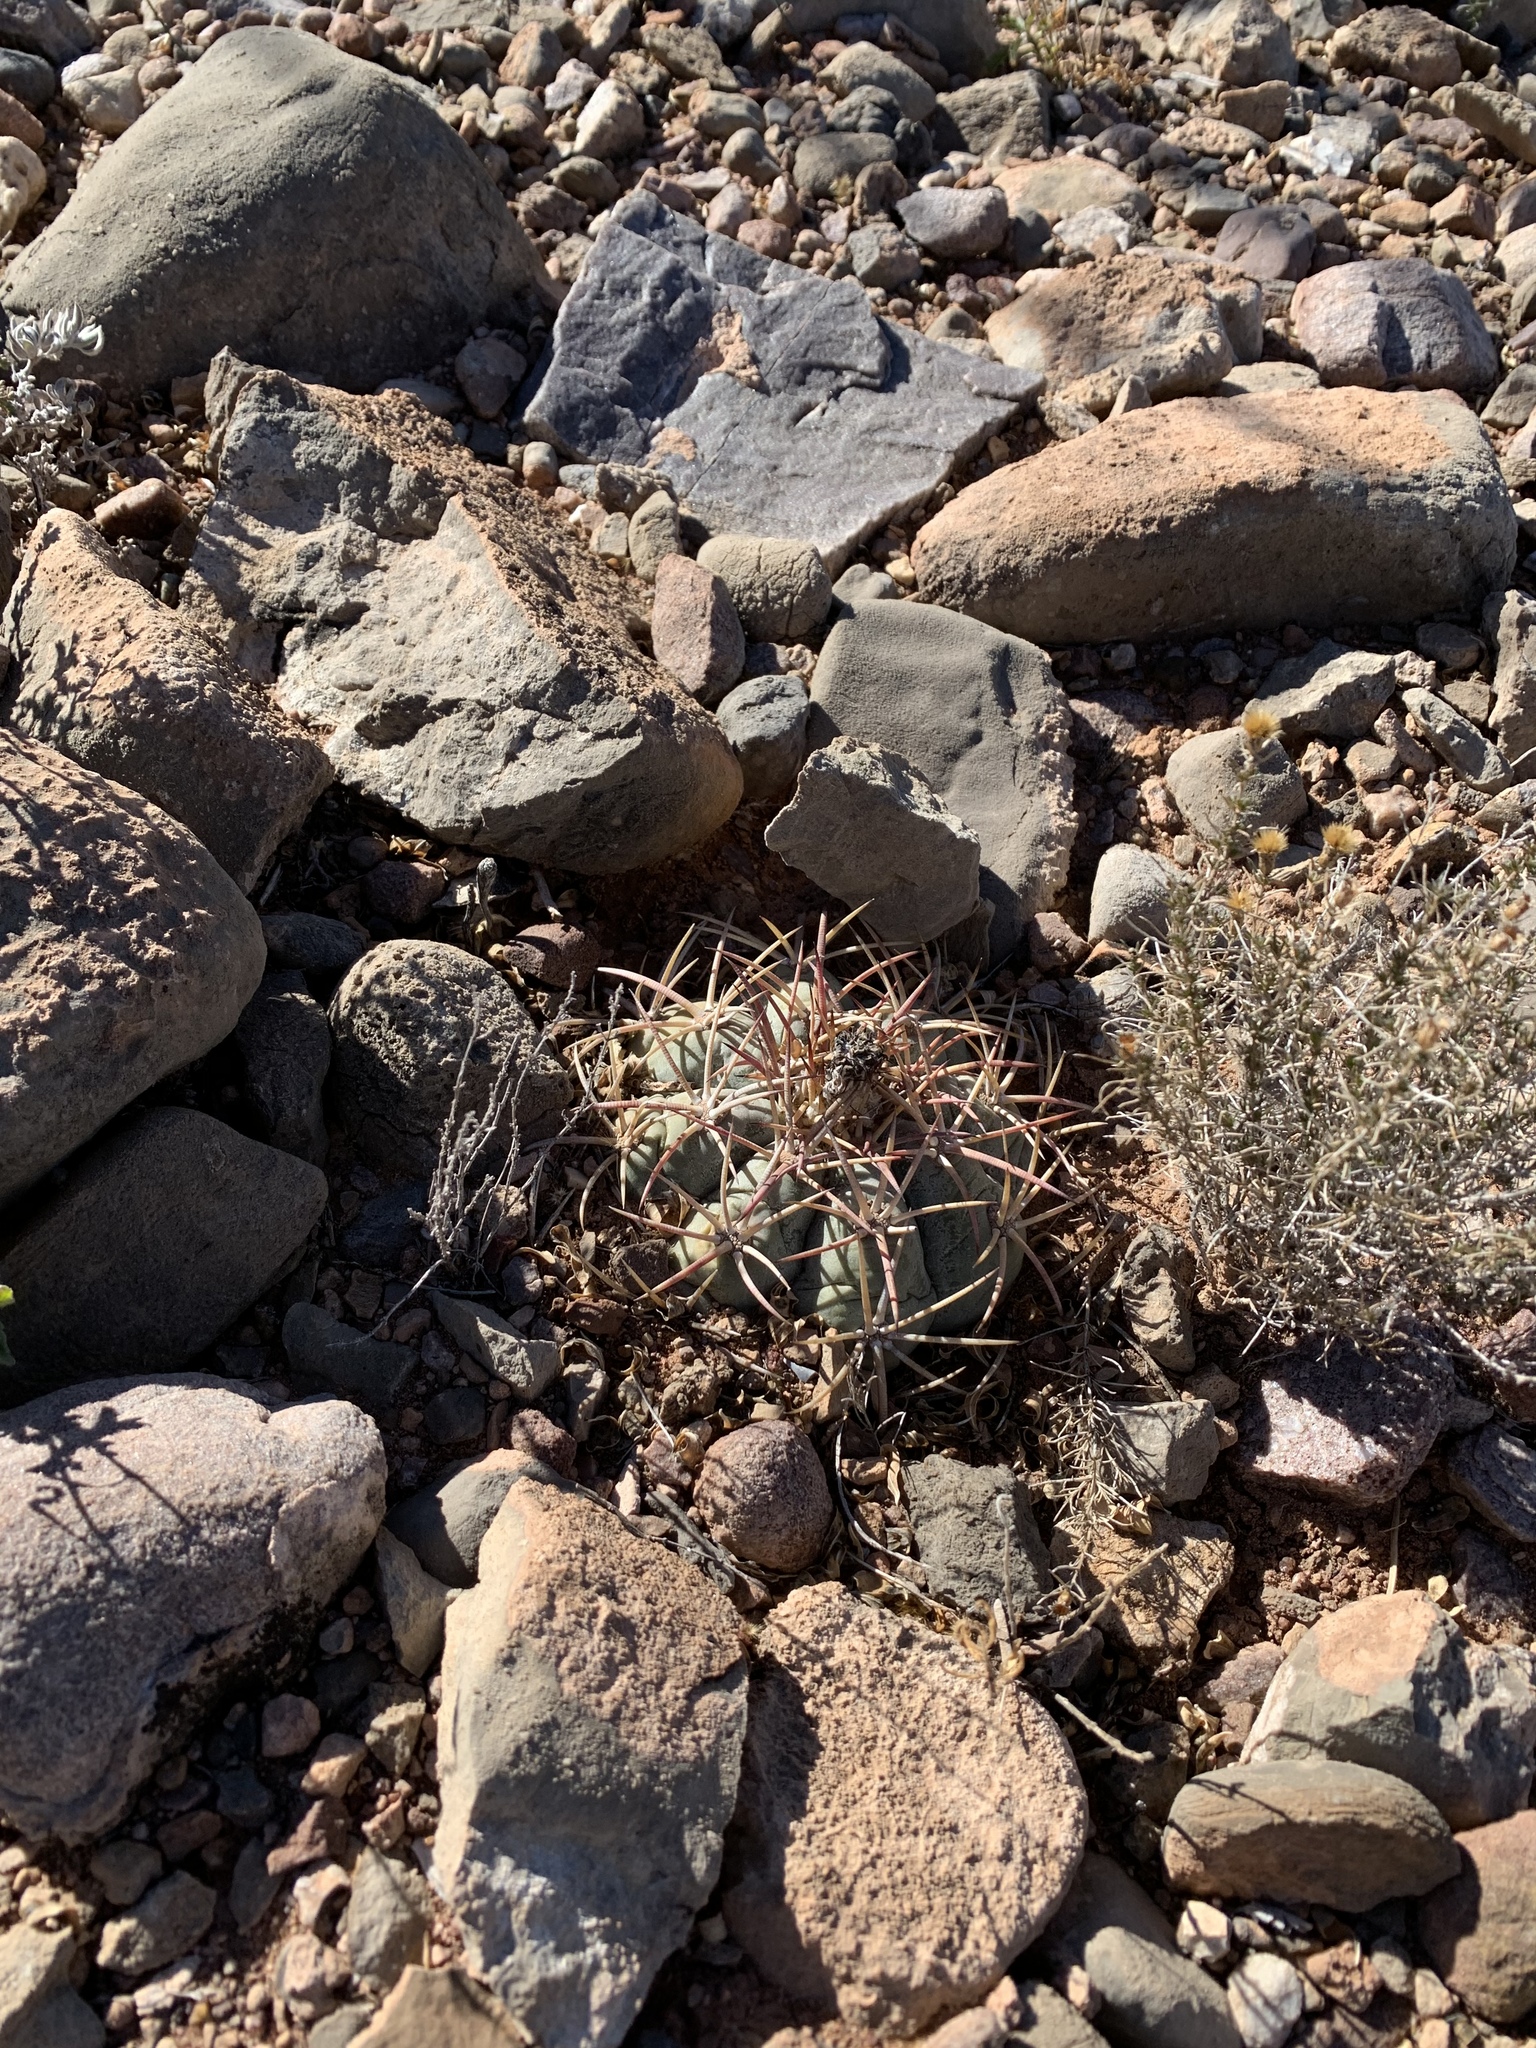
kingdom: Plantae
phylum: Tracheophyta
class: Magnoliopsida
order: Caryophyllales
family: Cactaceae
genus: Echinocactus
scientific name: Echinocactus horizonthalonius
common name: Devilshead
